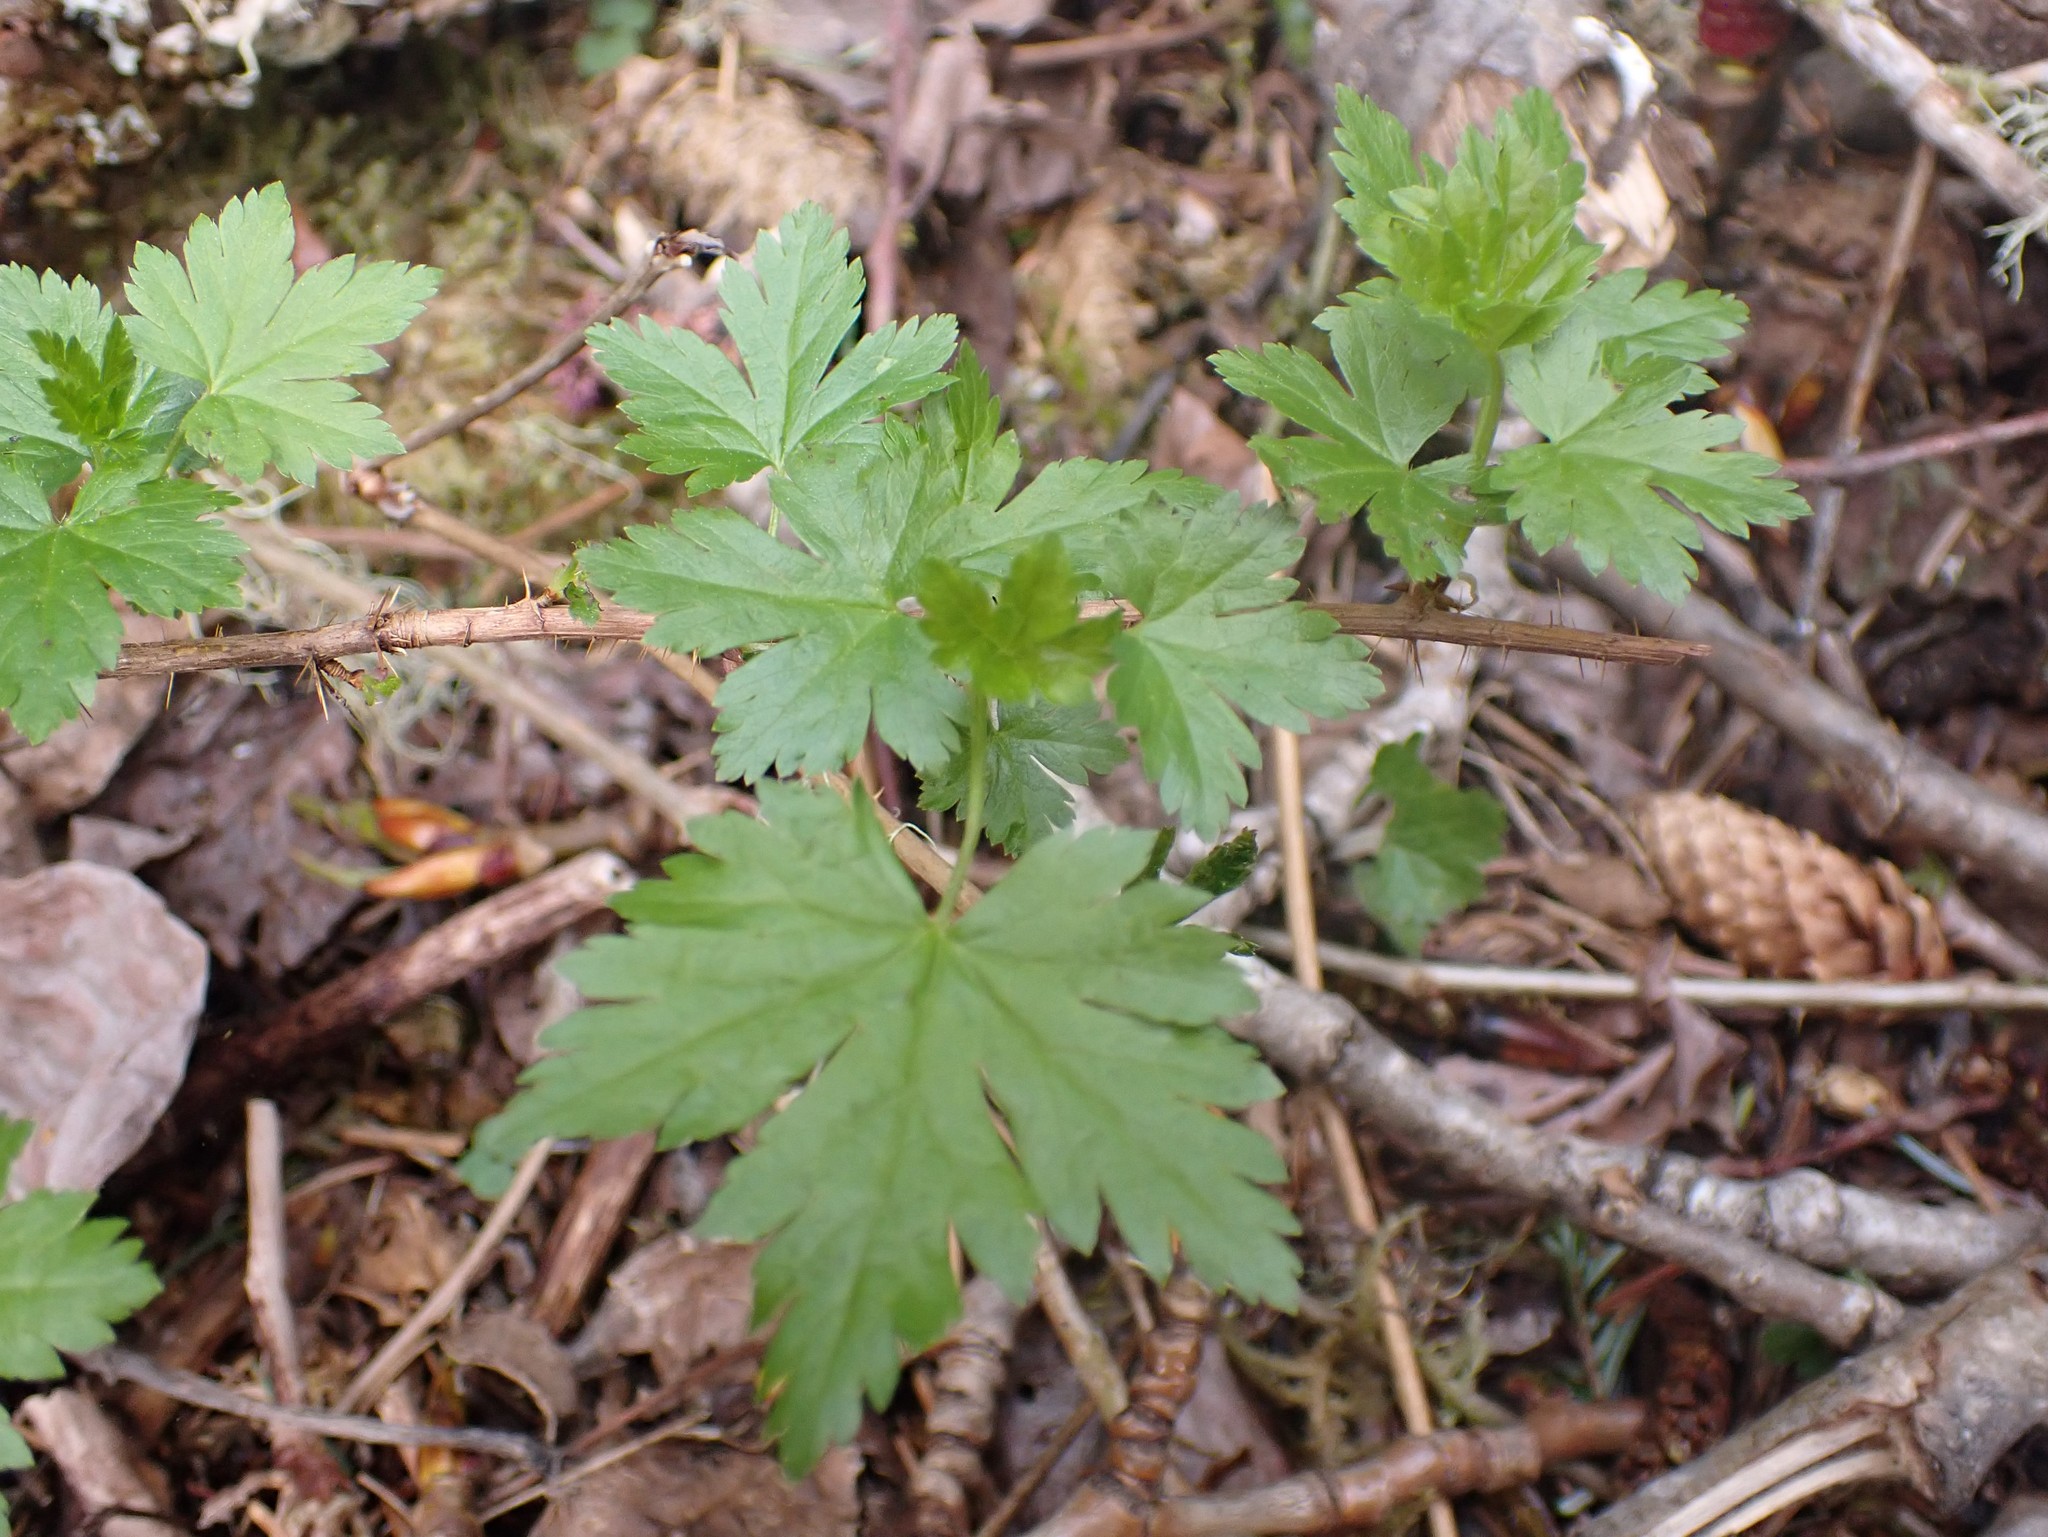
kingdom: Plantae
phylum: Tracheophyta
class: Magnoliopsida
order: Saxifragales
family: Grossulariaceae
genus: Ribes
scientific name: Ribes lacustre
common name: Black gooseberry
